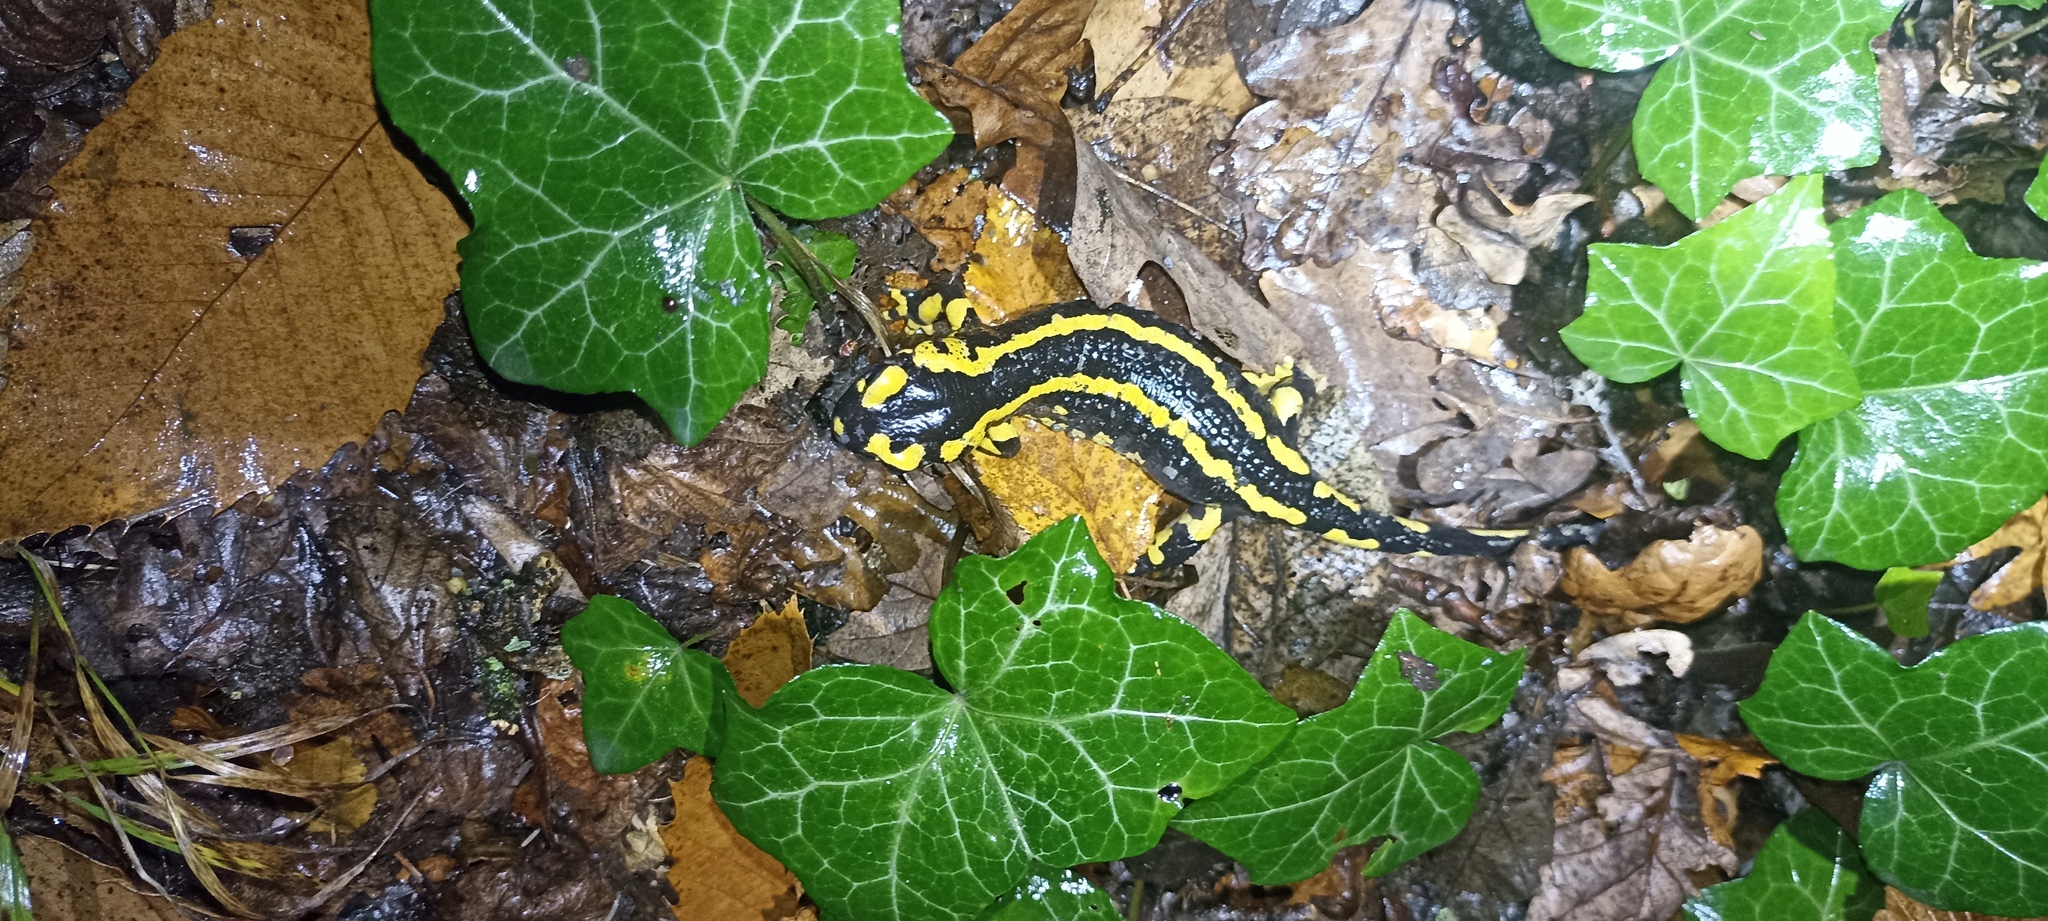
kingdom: Animalia
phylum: Chordata
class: Amphibia
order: Caudata
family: Salamandridae
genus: Salamandra
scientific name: Salamandra salamandra
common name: Fire salamander
